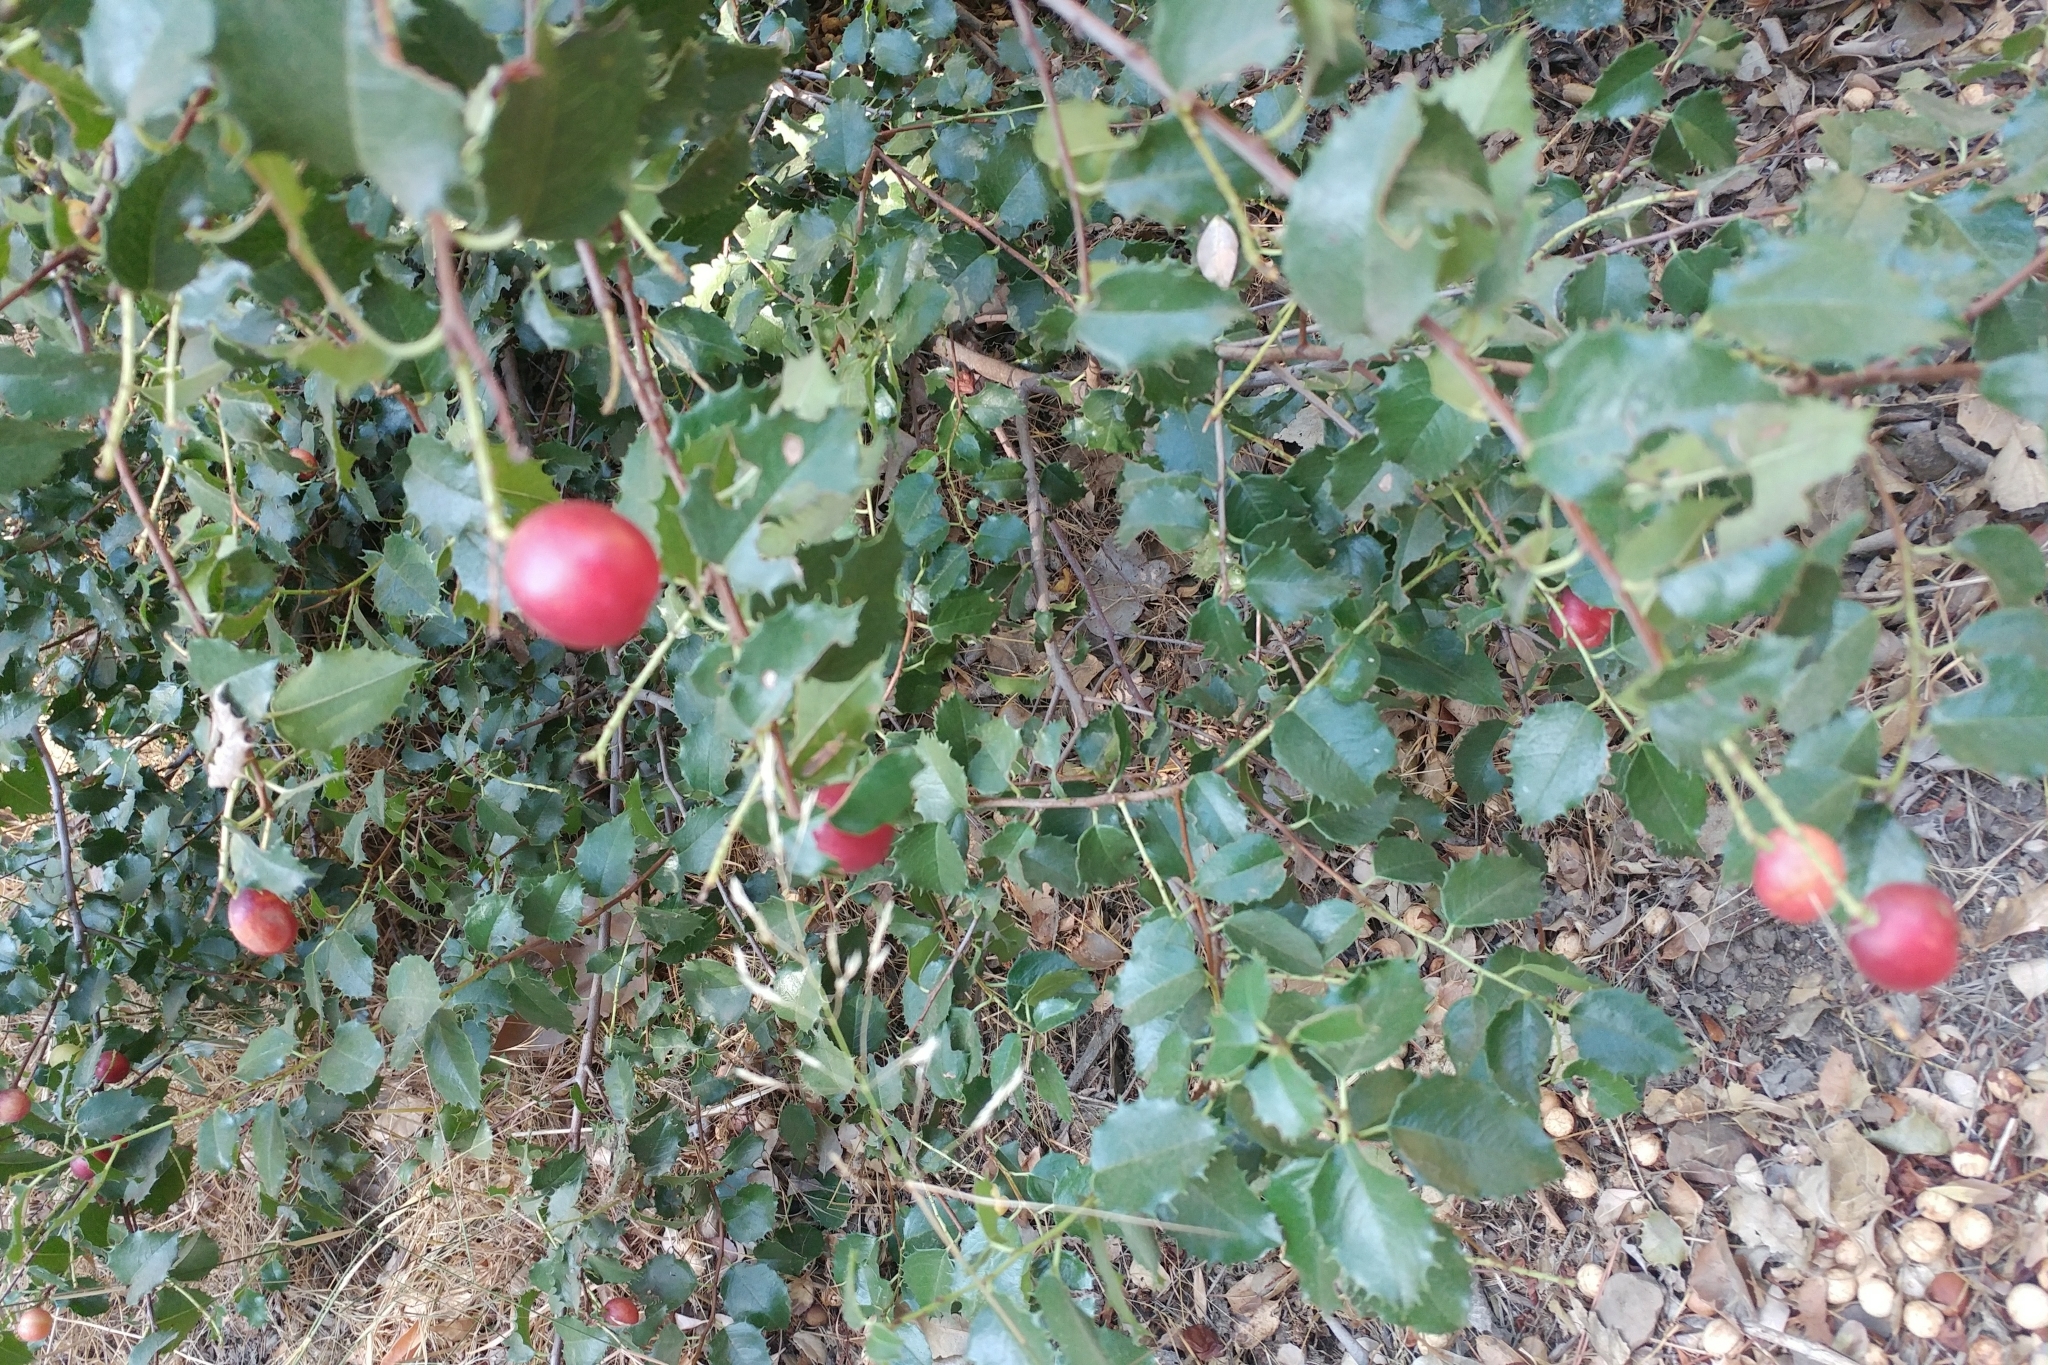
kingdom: Plantae
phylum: Tracheophyta
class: Magnoliopsida
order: Rosales
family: Rosaceae
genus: Prunus
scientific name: Prunus ilicifolia
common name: Hollyleaf cherry
